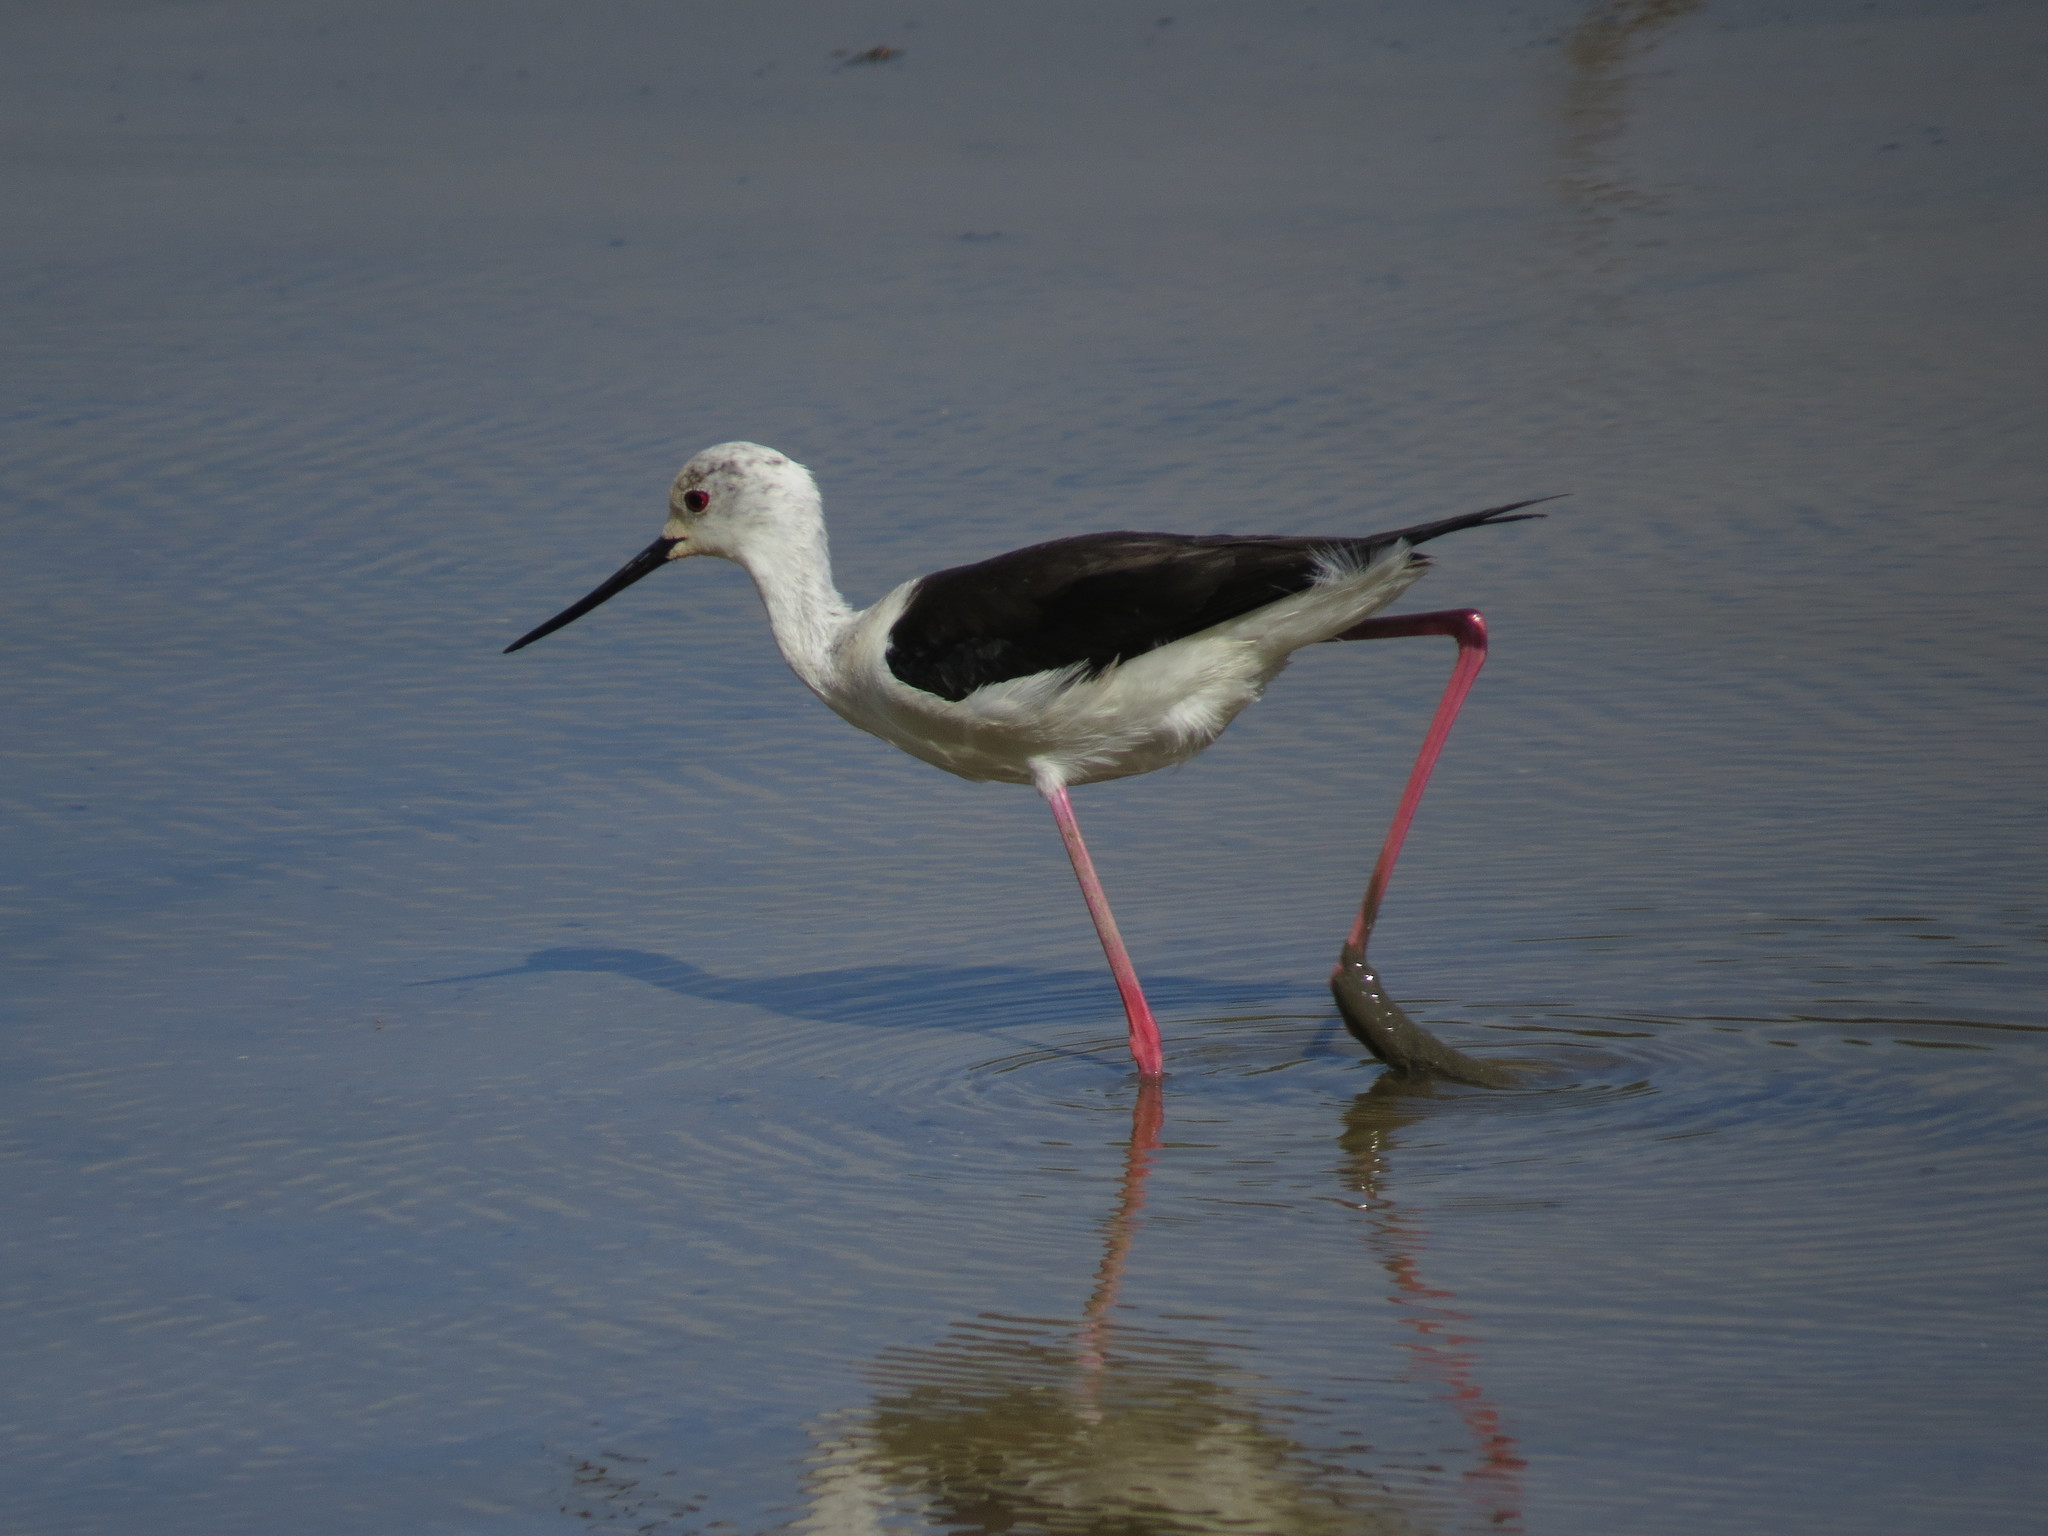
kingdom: Animalia
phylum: Chordata
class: Aves
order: Charadriiformes
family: Recurvirostridae
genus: Himantopus
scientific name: Himantopus himantopus
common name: Black-winged stilt
